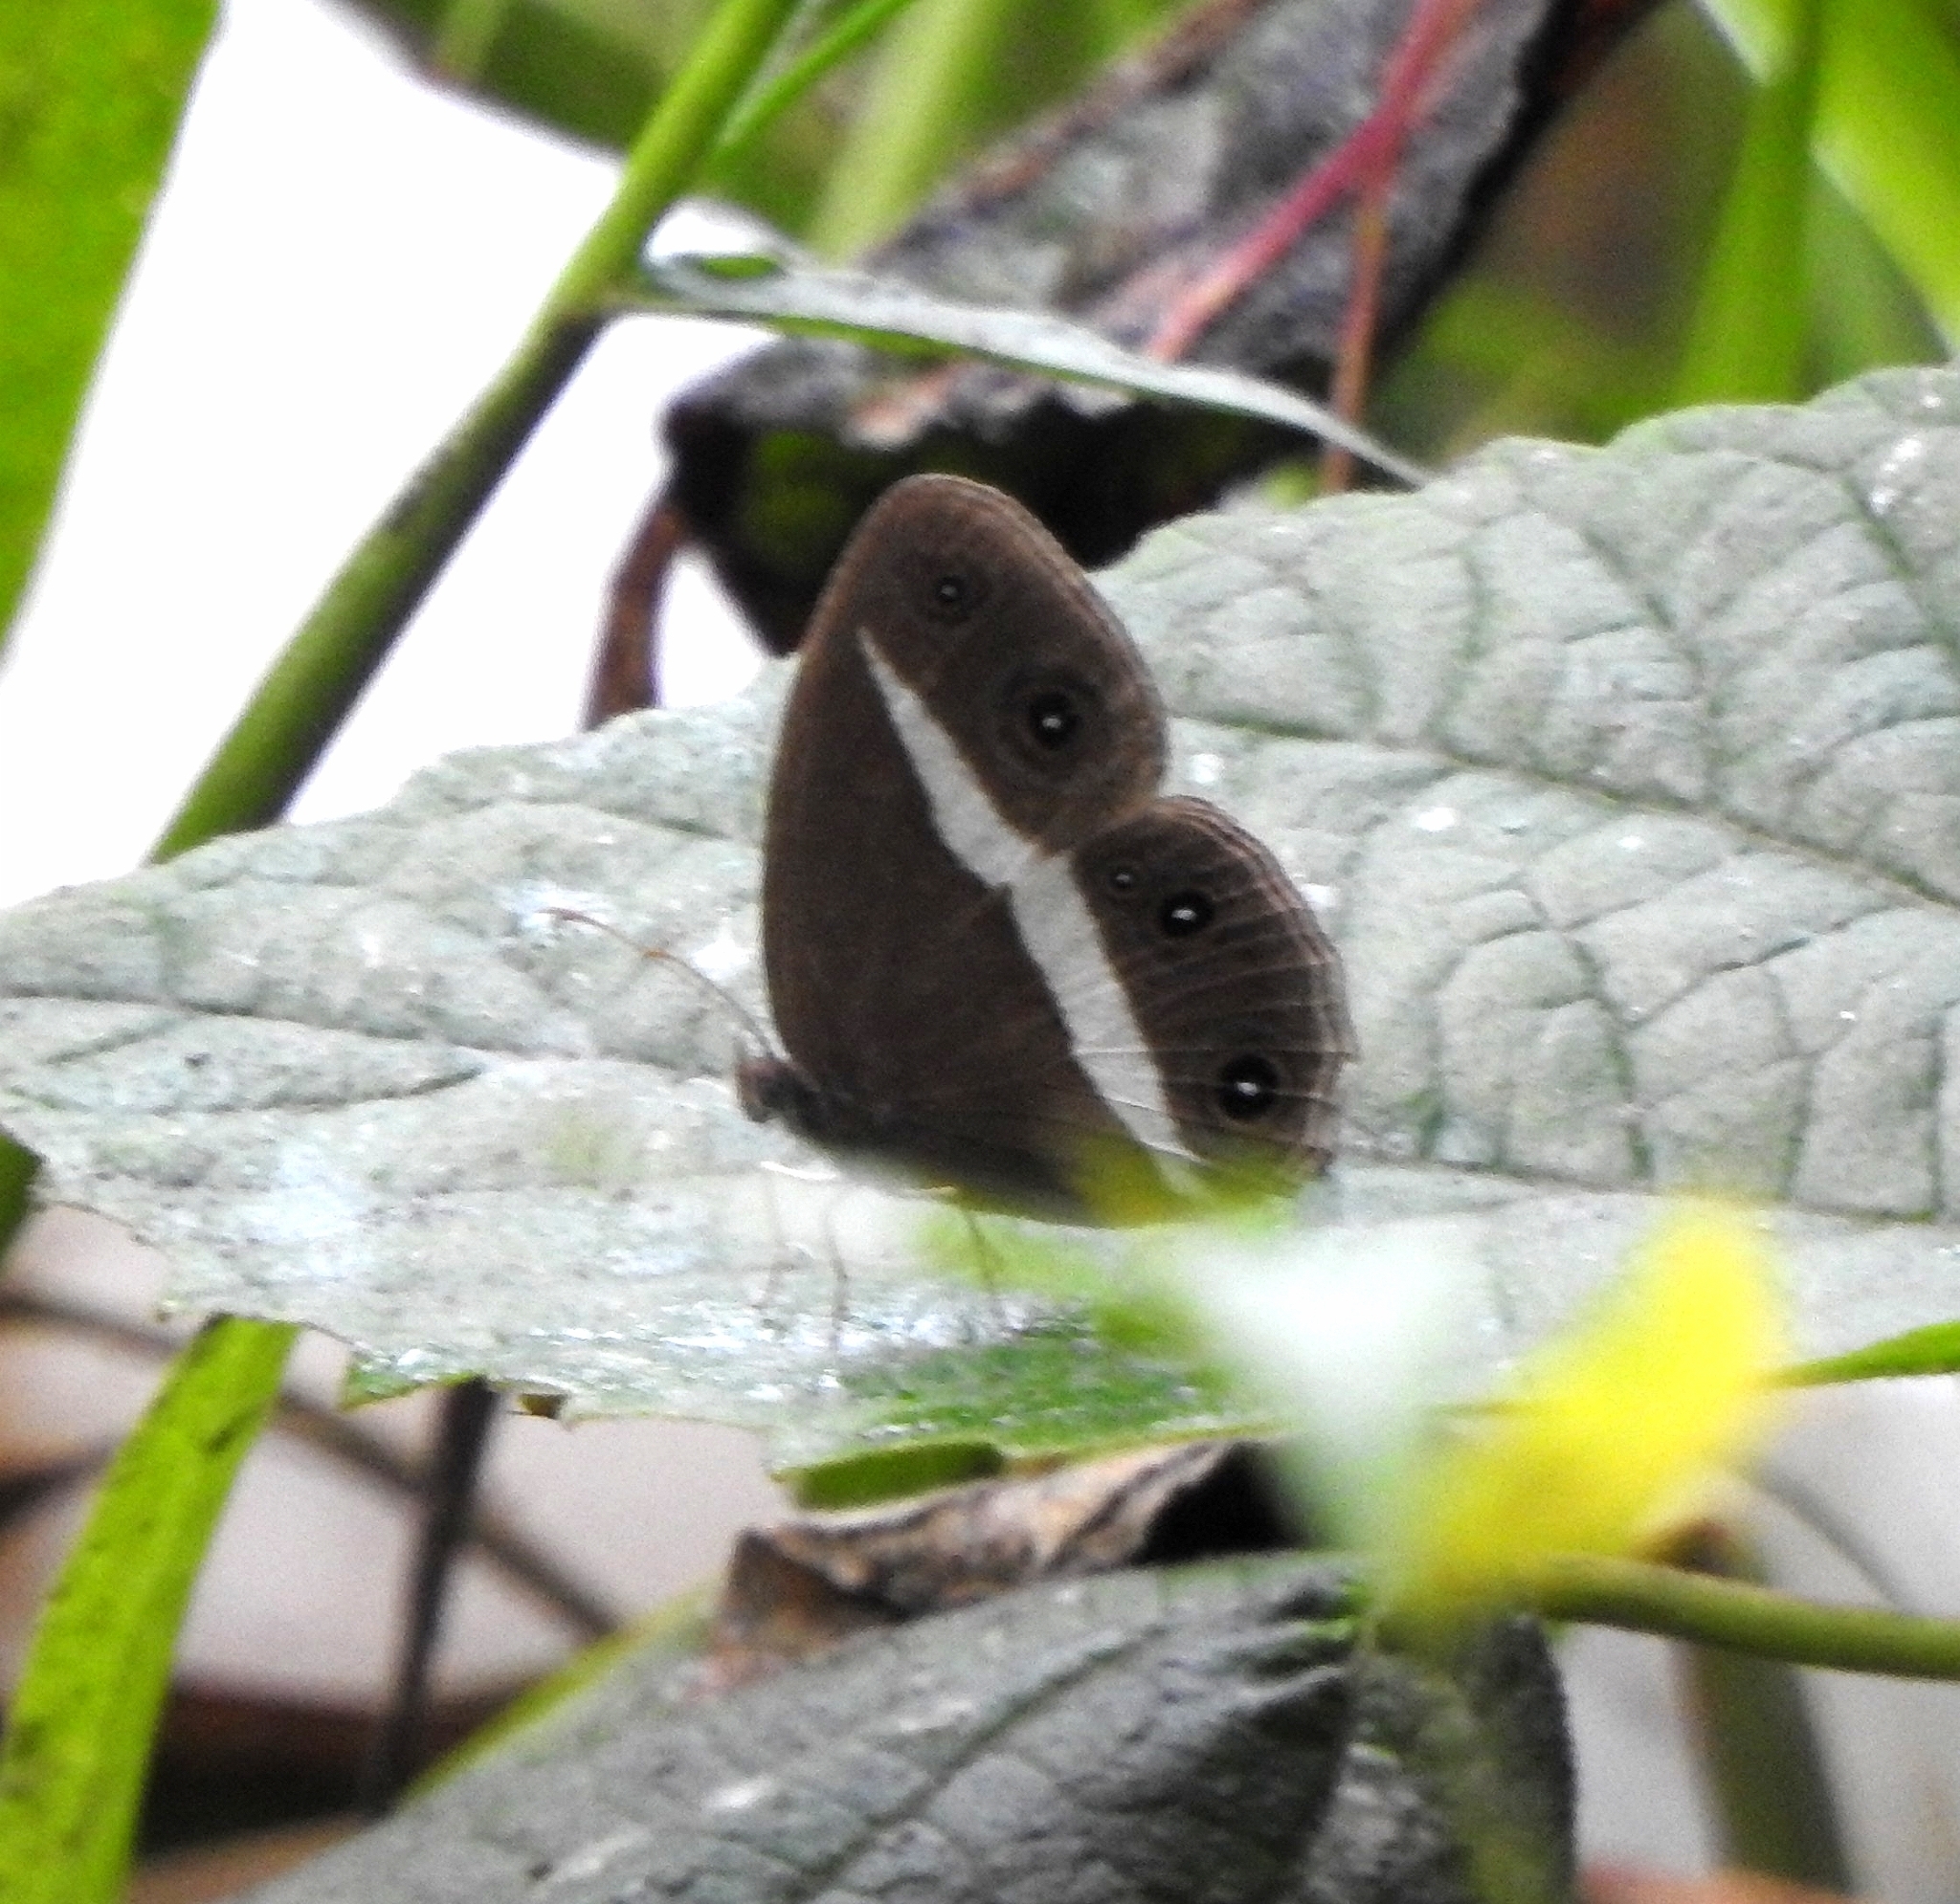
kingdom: Animalia
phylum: Arthropoda
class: Insecta
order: Lepidoptera
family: Nymphalidae
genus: Orsotriaena
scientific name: Orsotriaena medus
